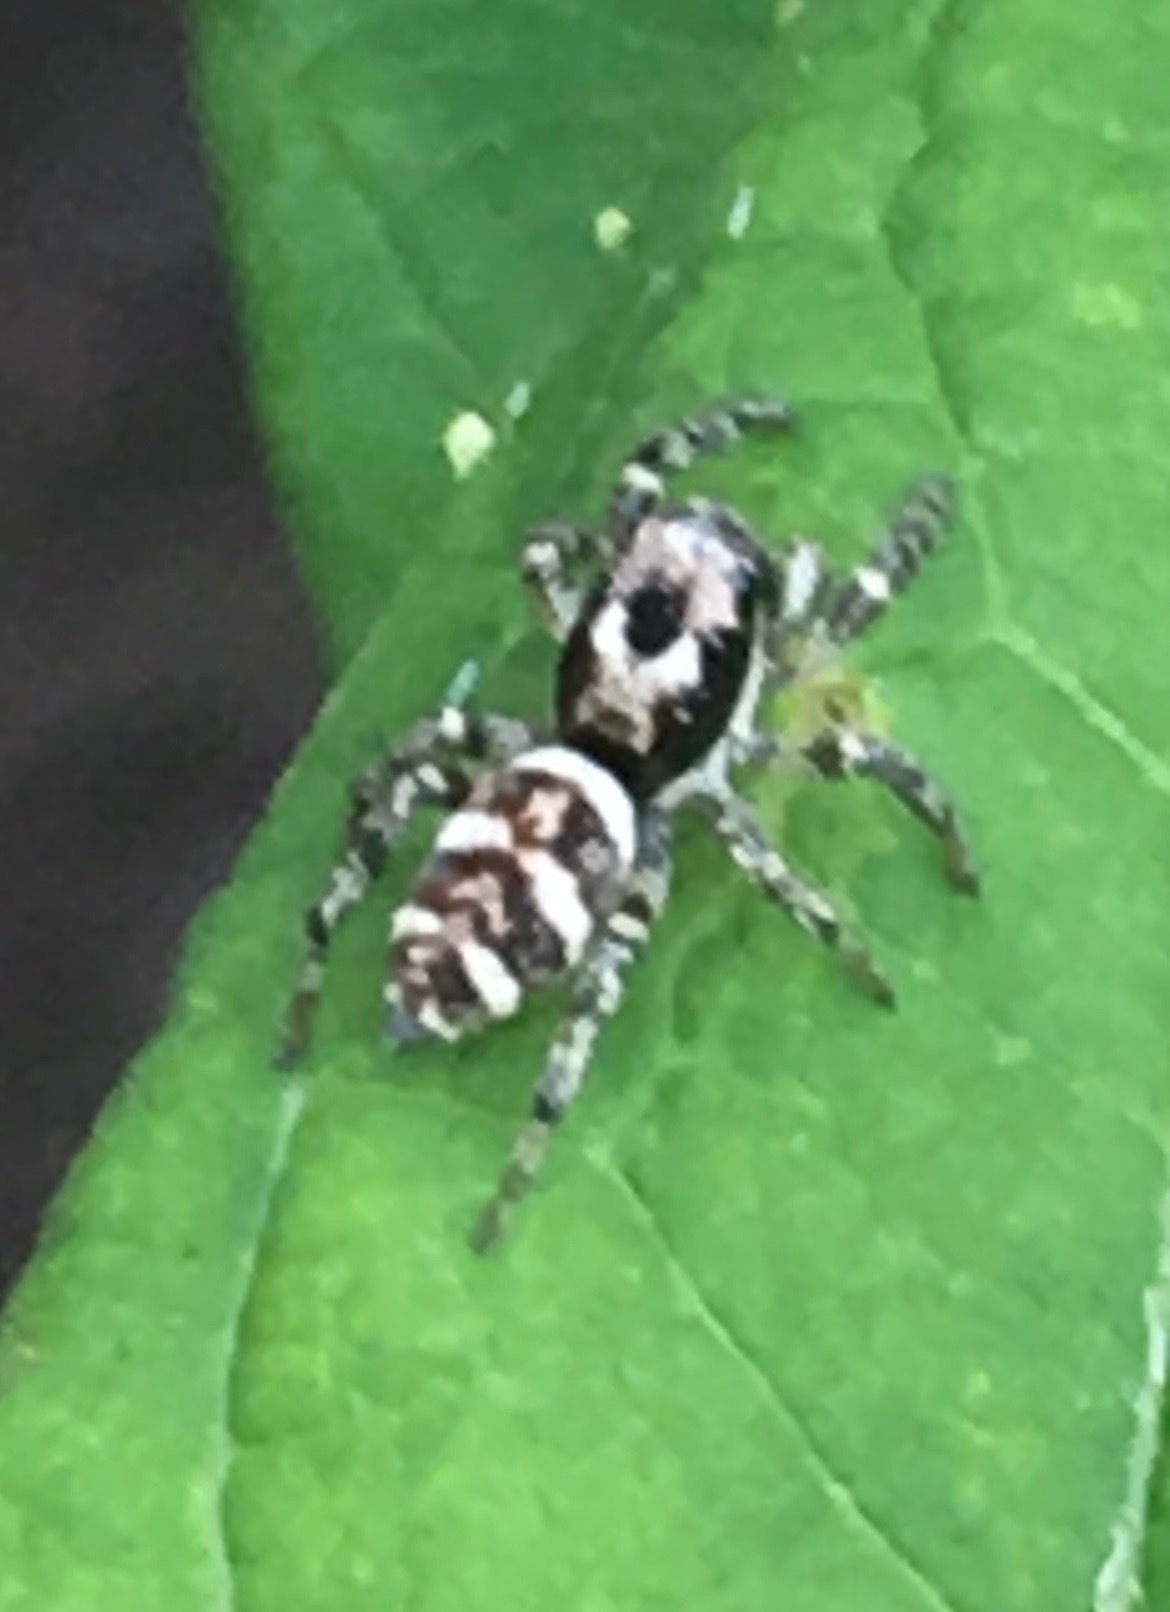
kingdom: Animalia
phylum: Arthropoda
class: Arachnida
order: Araneae
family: Salticidae
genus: Salticus
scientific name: Salticus scenicus
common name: Zebra jumper
